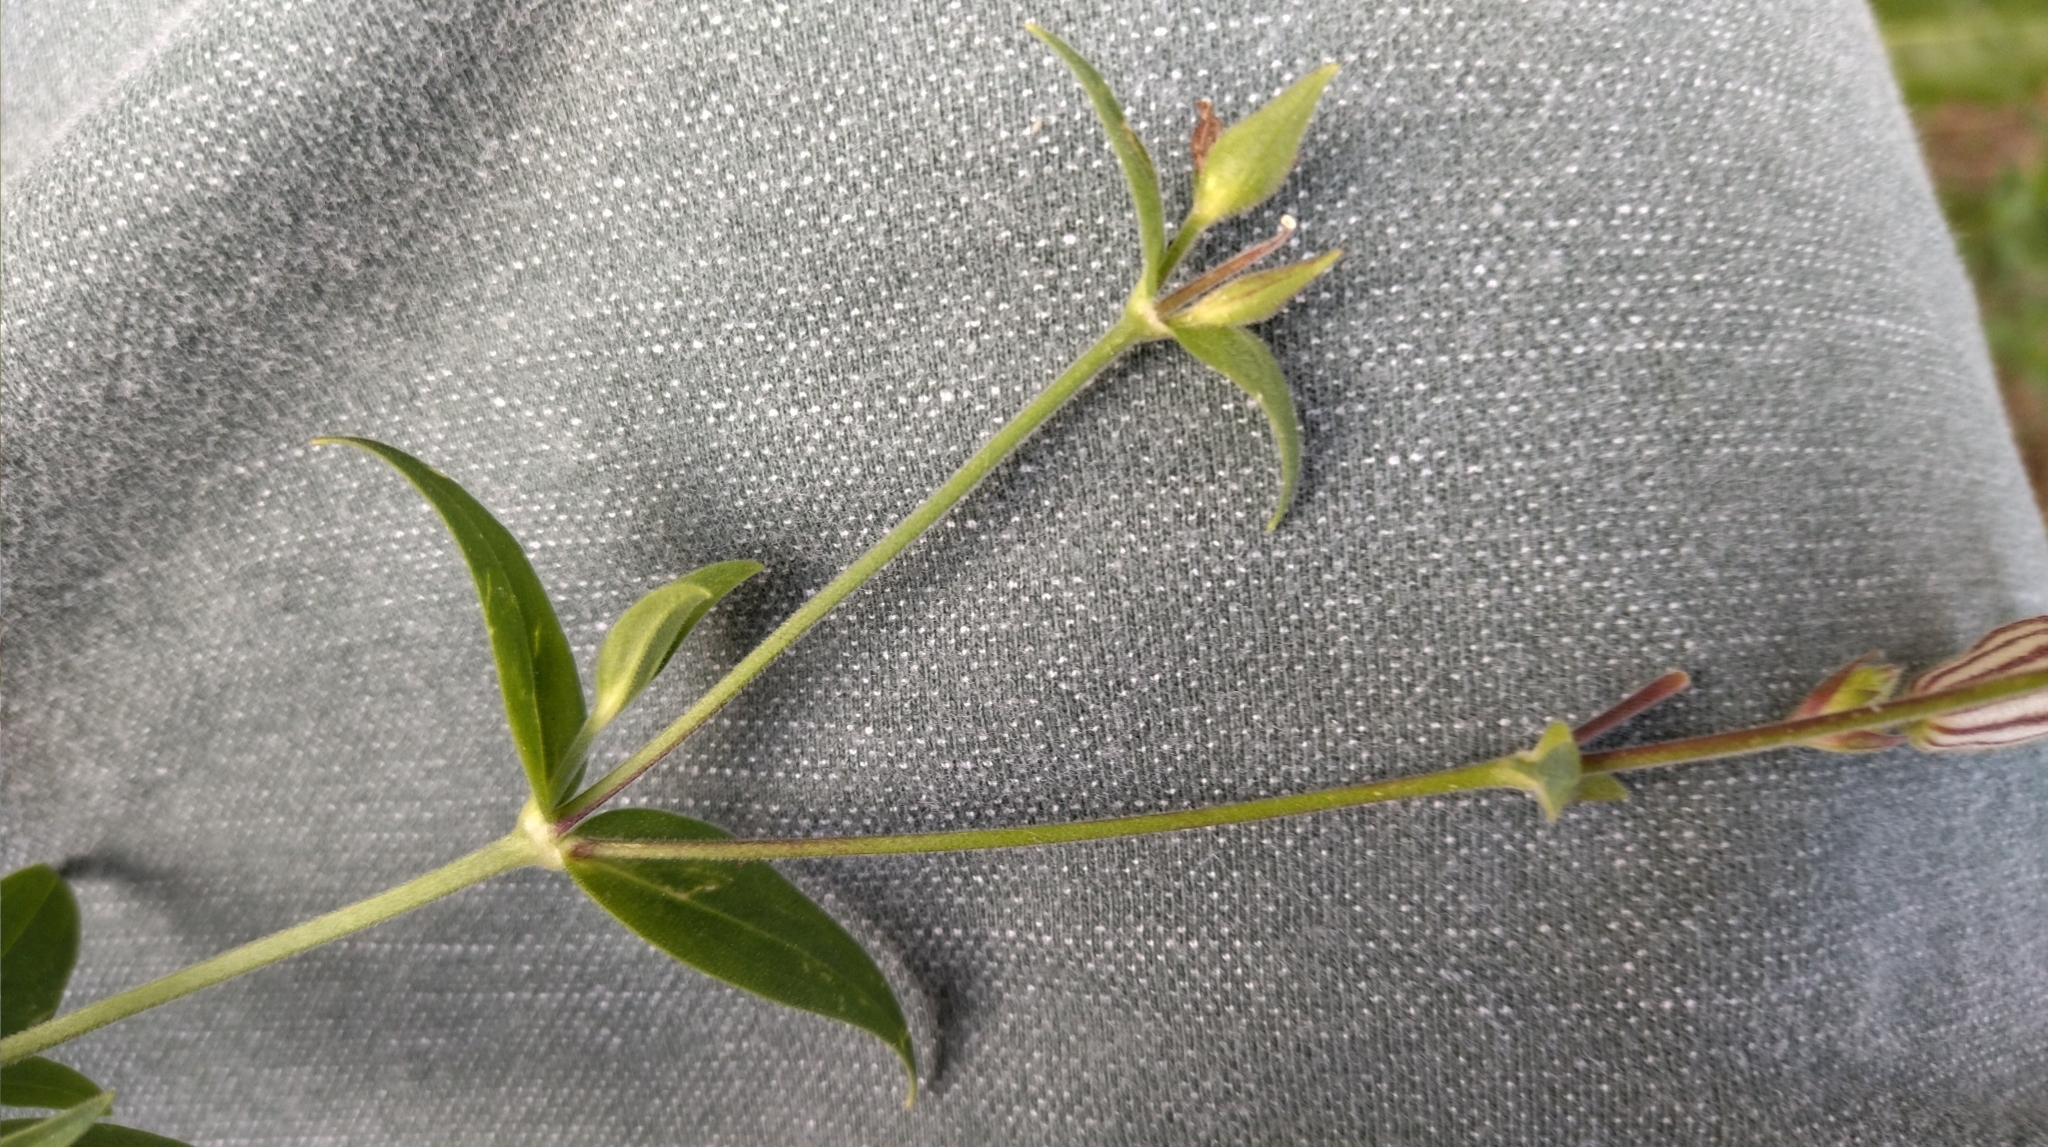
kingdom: Plantae
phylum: Tracheophyta
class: Magnoliopsida
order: Caryophyllales
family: Caryophyllaceae
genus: Stellaria
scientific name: Stellaria aquatica
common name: Water chickweed
